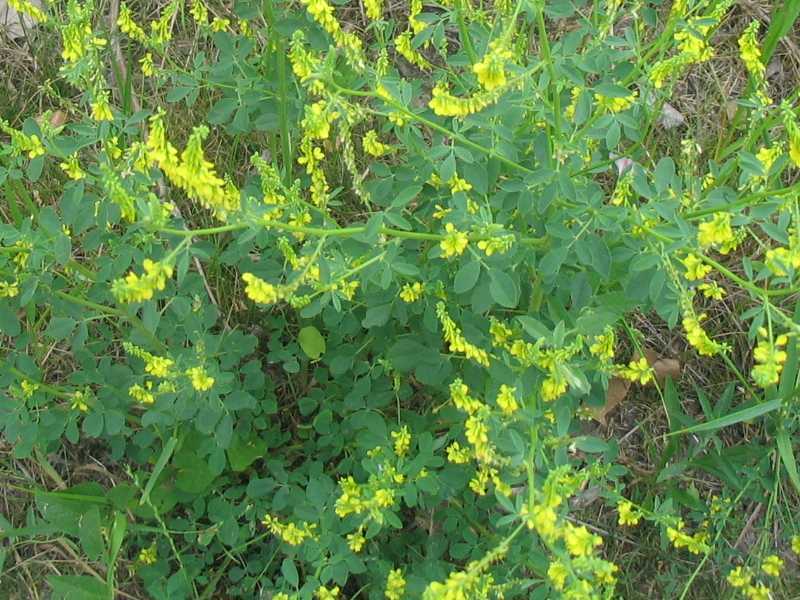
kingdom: Plantae
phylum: Tracheophyta
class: Magnoliopsida
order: Fabales
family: Fabaceae
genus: Melilotus
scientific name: Melilotus officinalis
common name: Sweetclover
